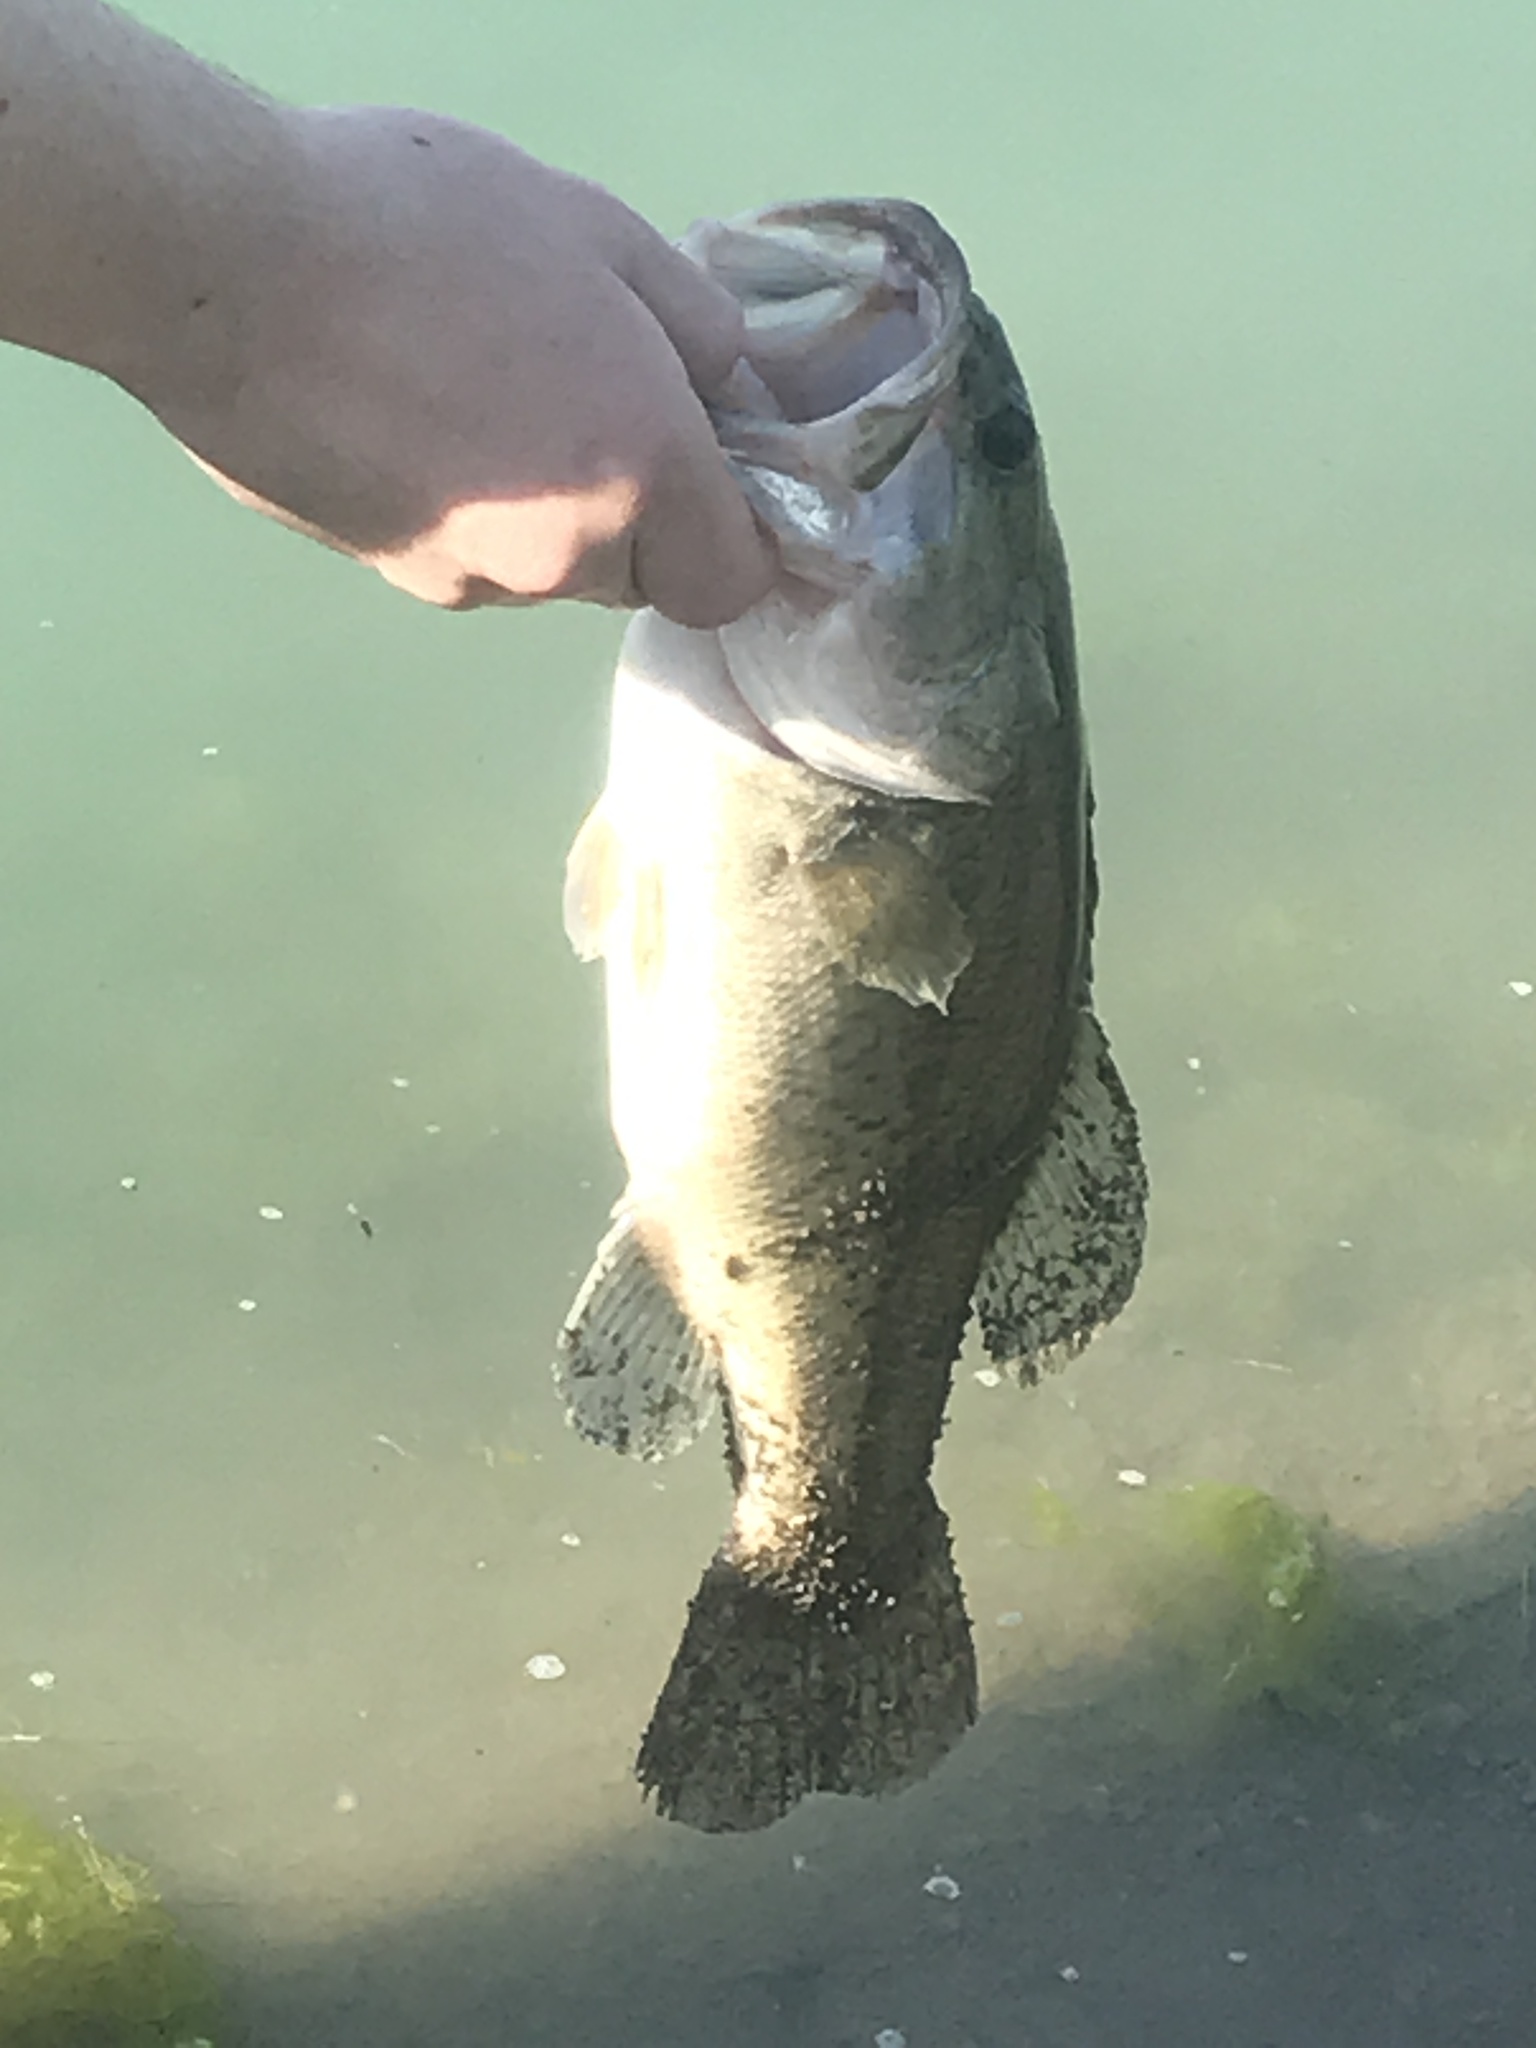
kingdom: Animalia
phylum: Chordata
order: Perciformes
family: Centrarchidae
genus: Micropterus
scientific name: Micropterus
